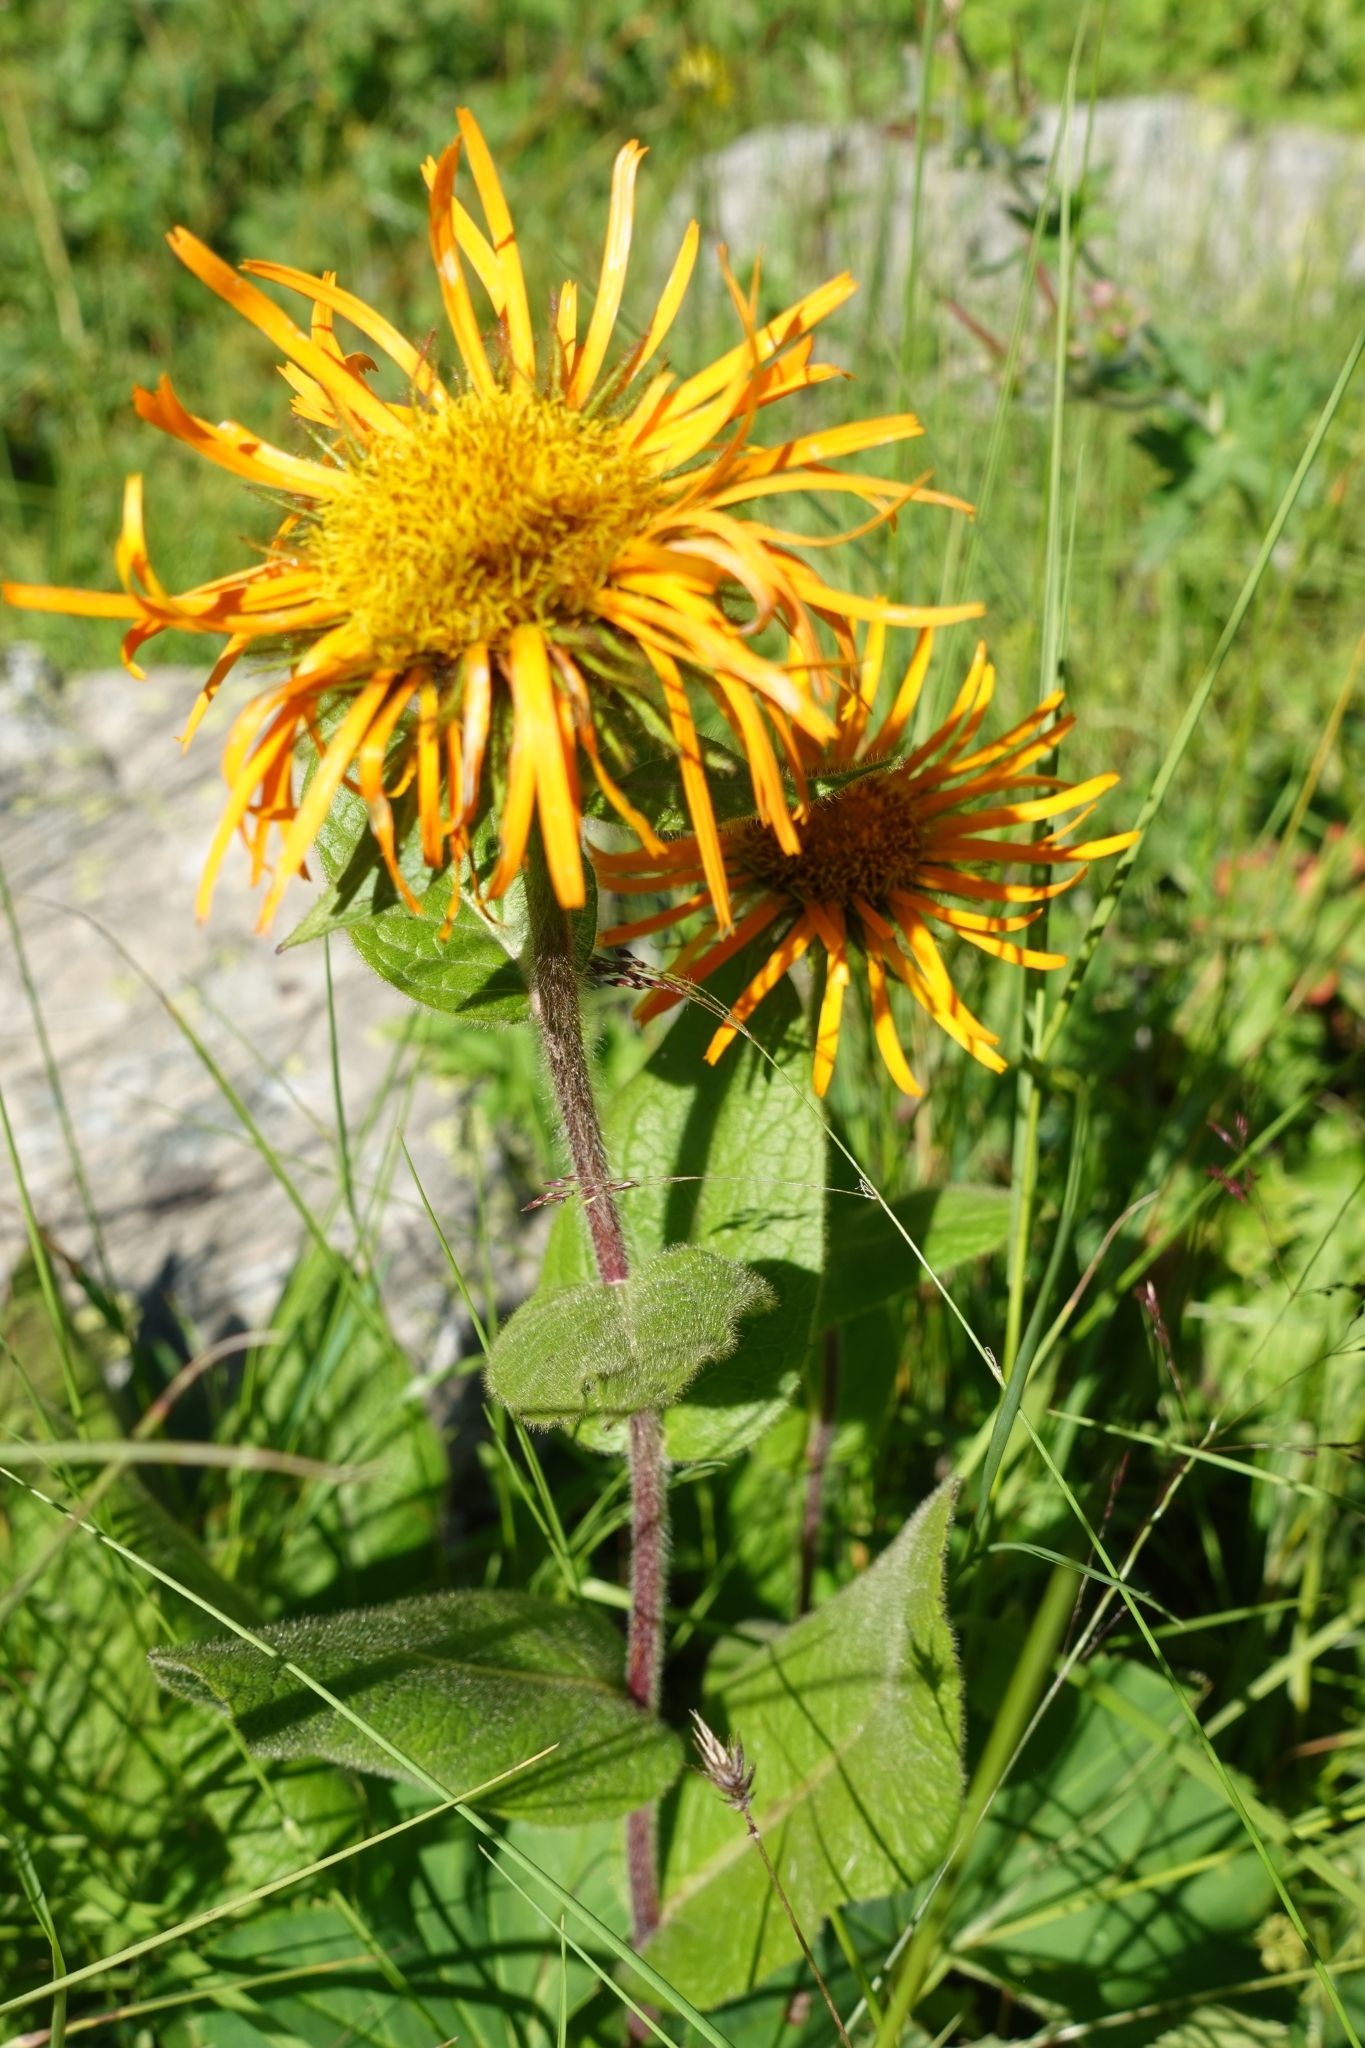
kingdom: Plantae
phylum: Tracheophyta
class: Magnoliopsida
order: Asterales
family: Asteraceae
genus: Pentanema
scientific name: Pentanema orientale
